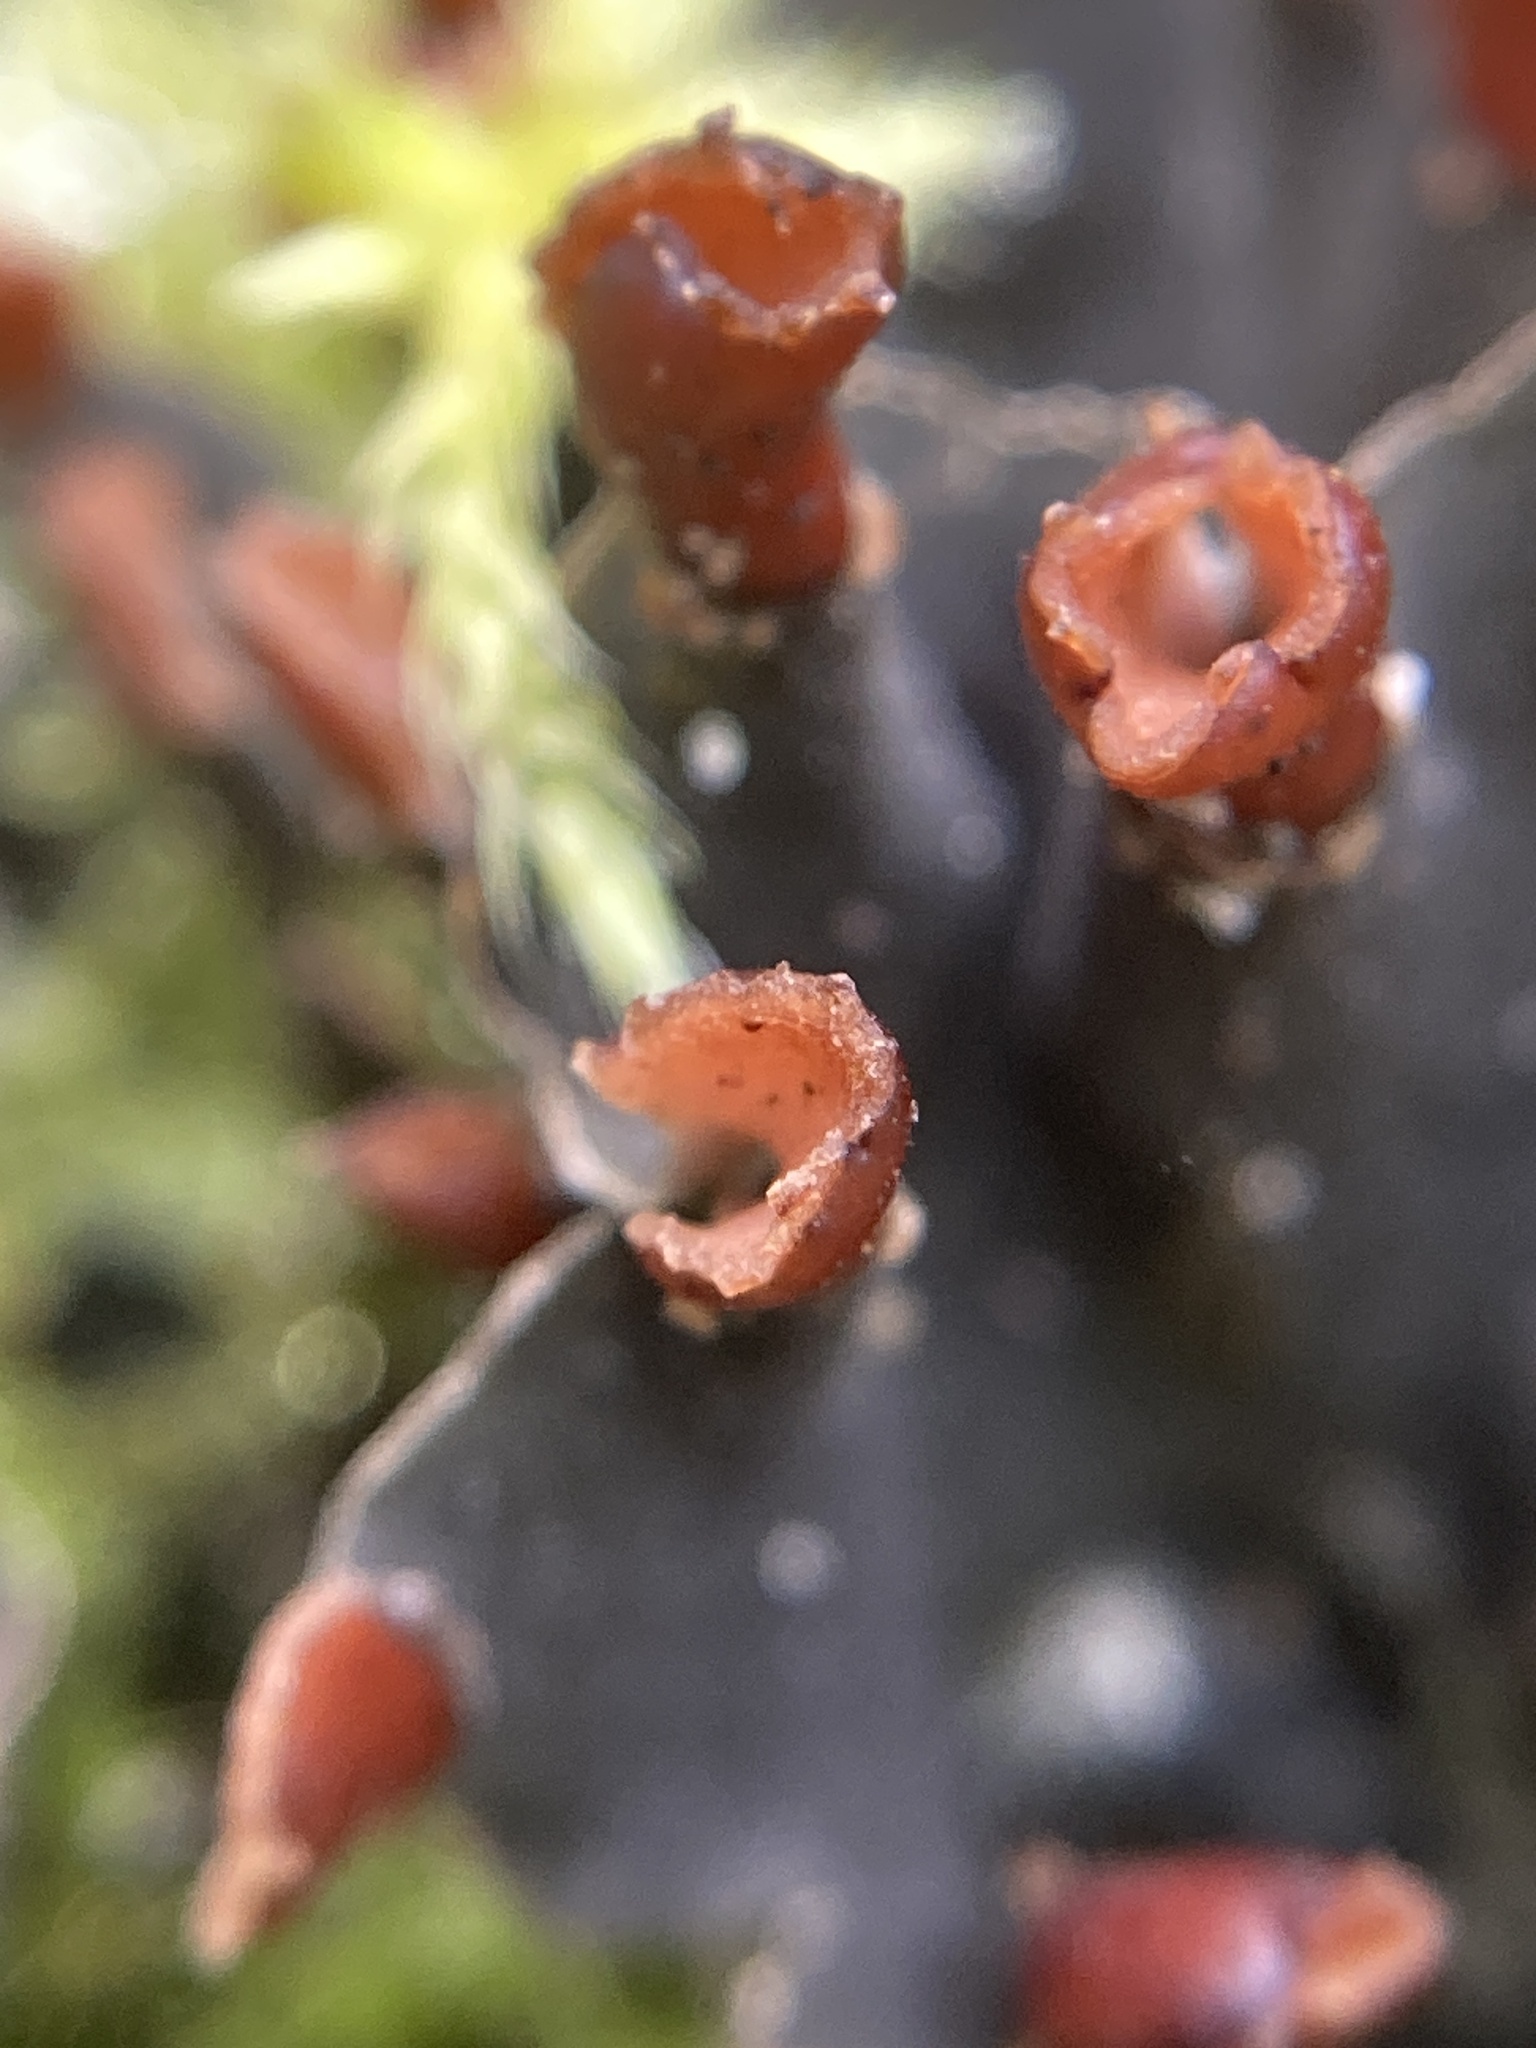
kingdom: Fungi
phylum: Ascomycota
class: Lecanoromycetes
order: Peltigerales
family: Peltigeraceae
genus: Peltigera
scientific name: Peltigera didactyla
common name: Alternating dog lichen
